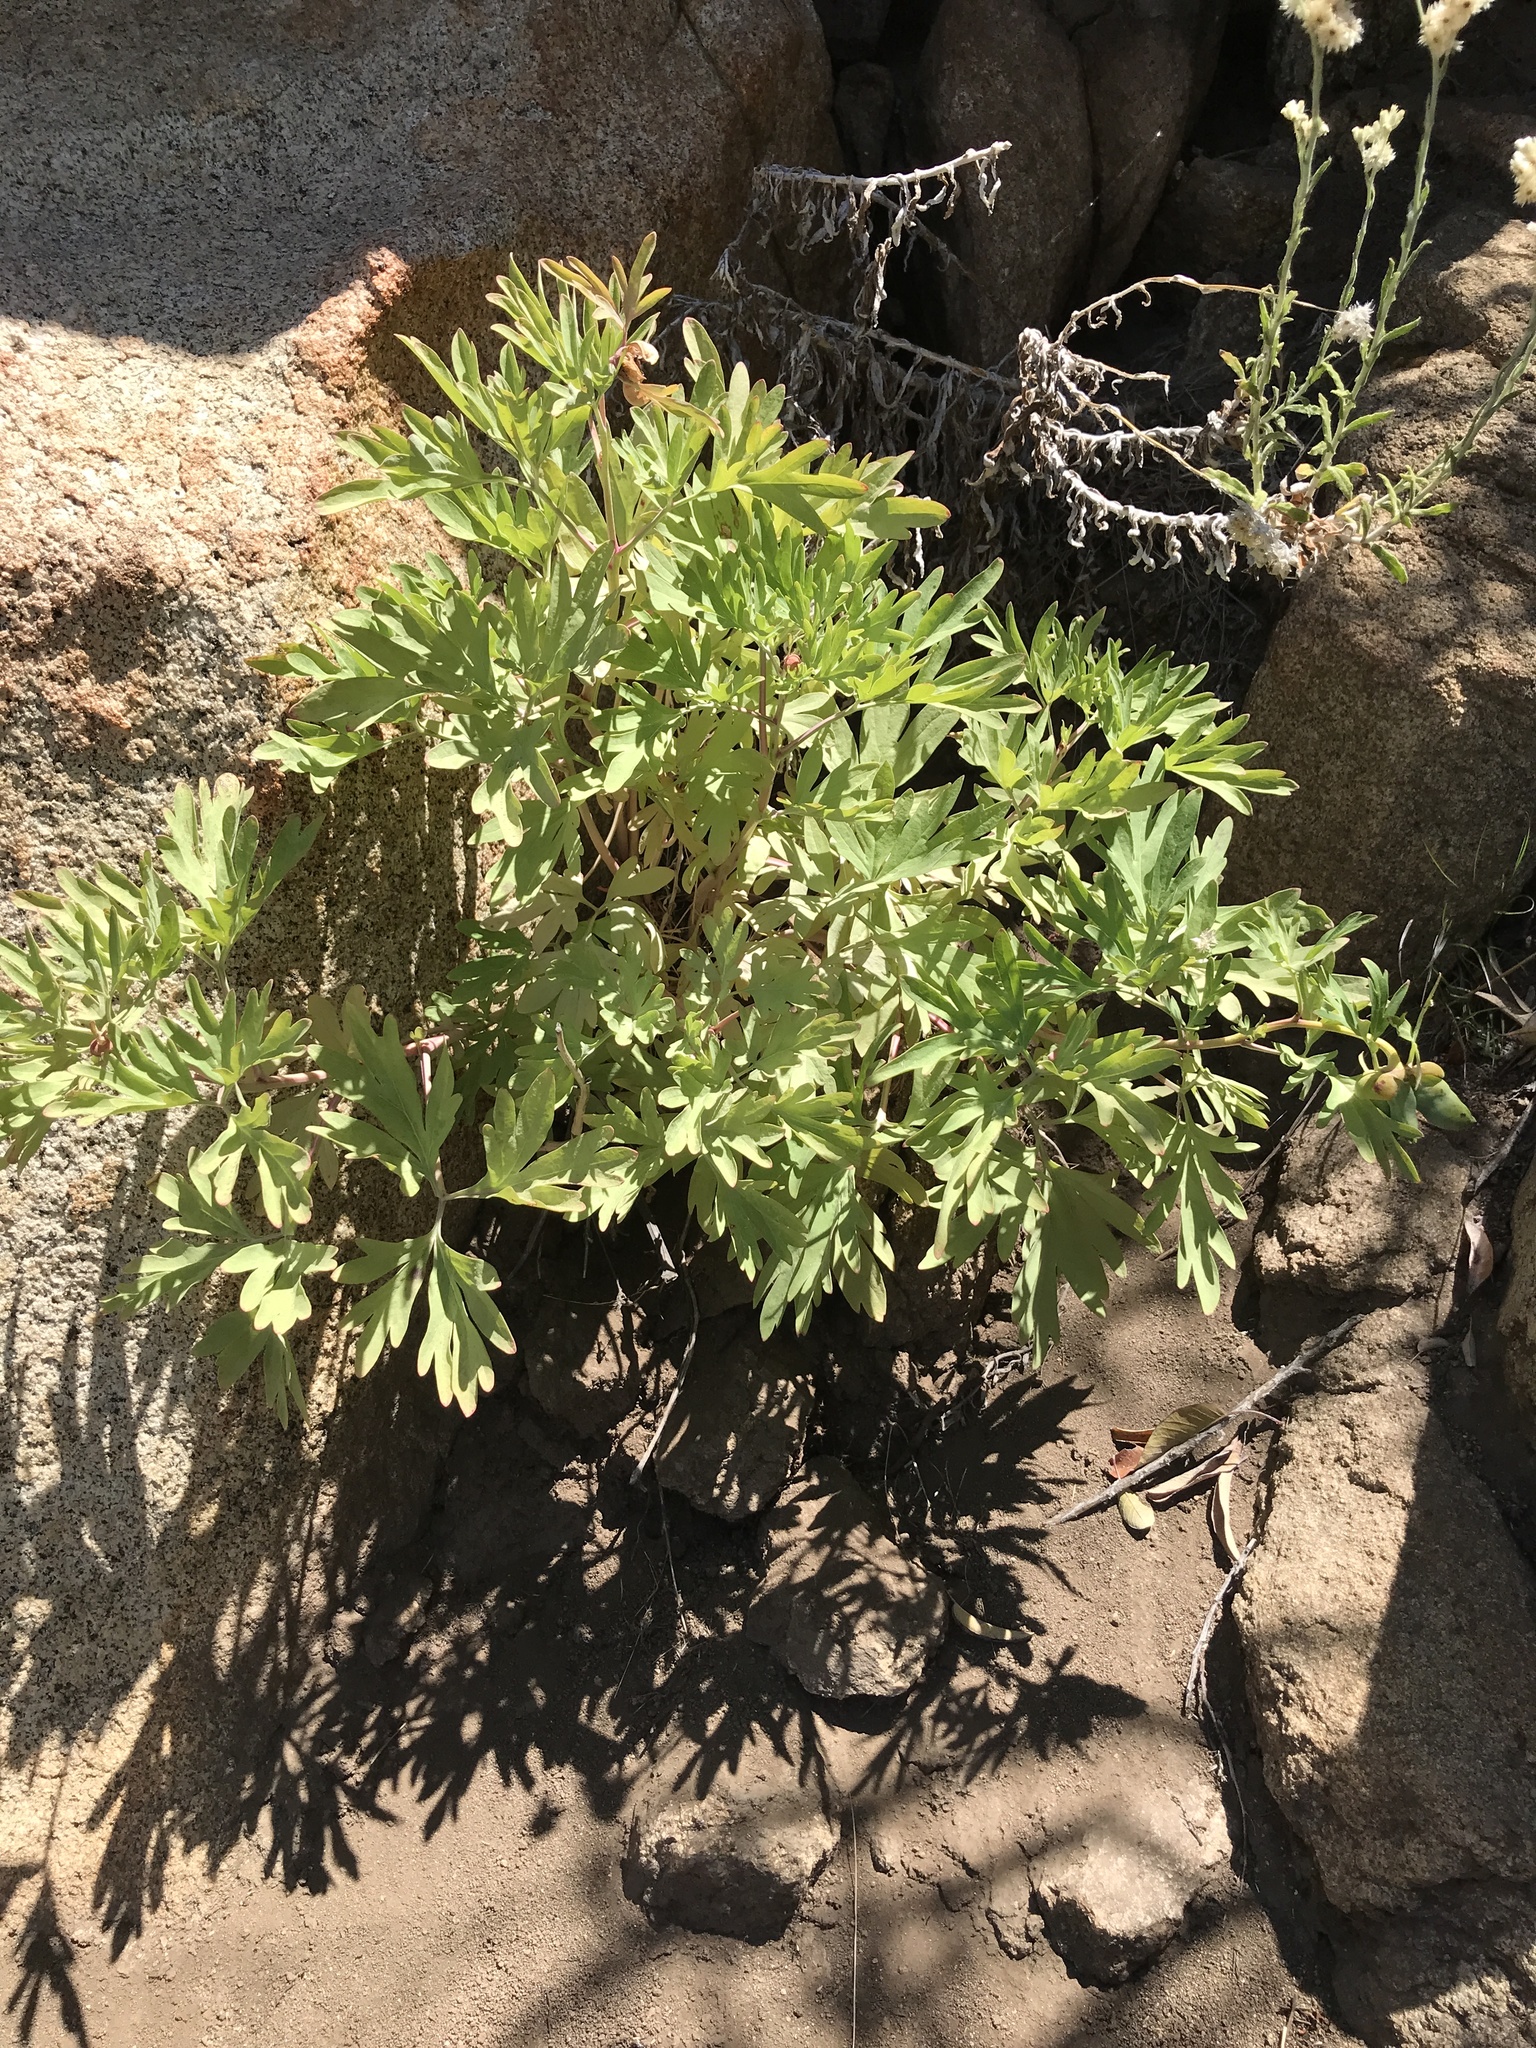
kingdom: Plantae
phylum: Tracheophyta
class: Magnoliopsida
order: Saxifragales
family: Paeoniaceae
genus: Paeonia
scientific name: Paeonia californica
